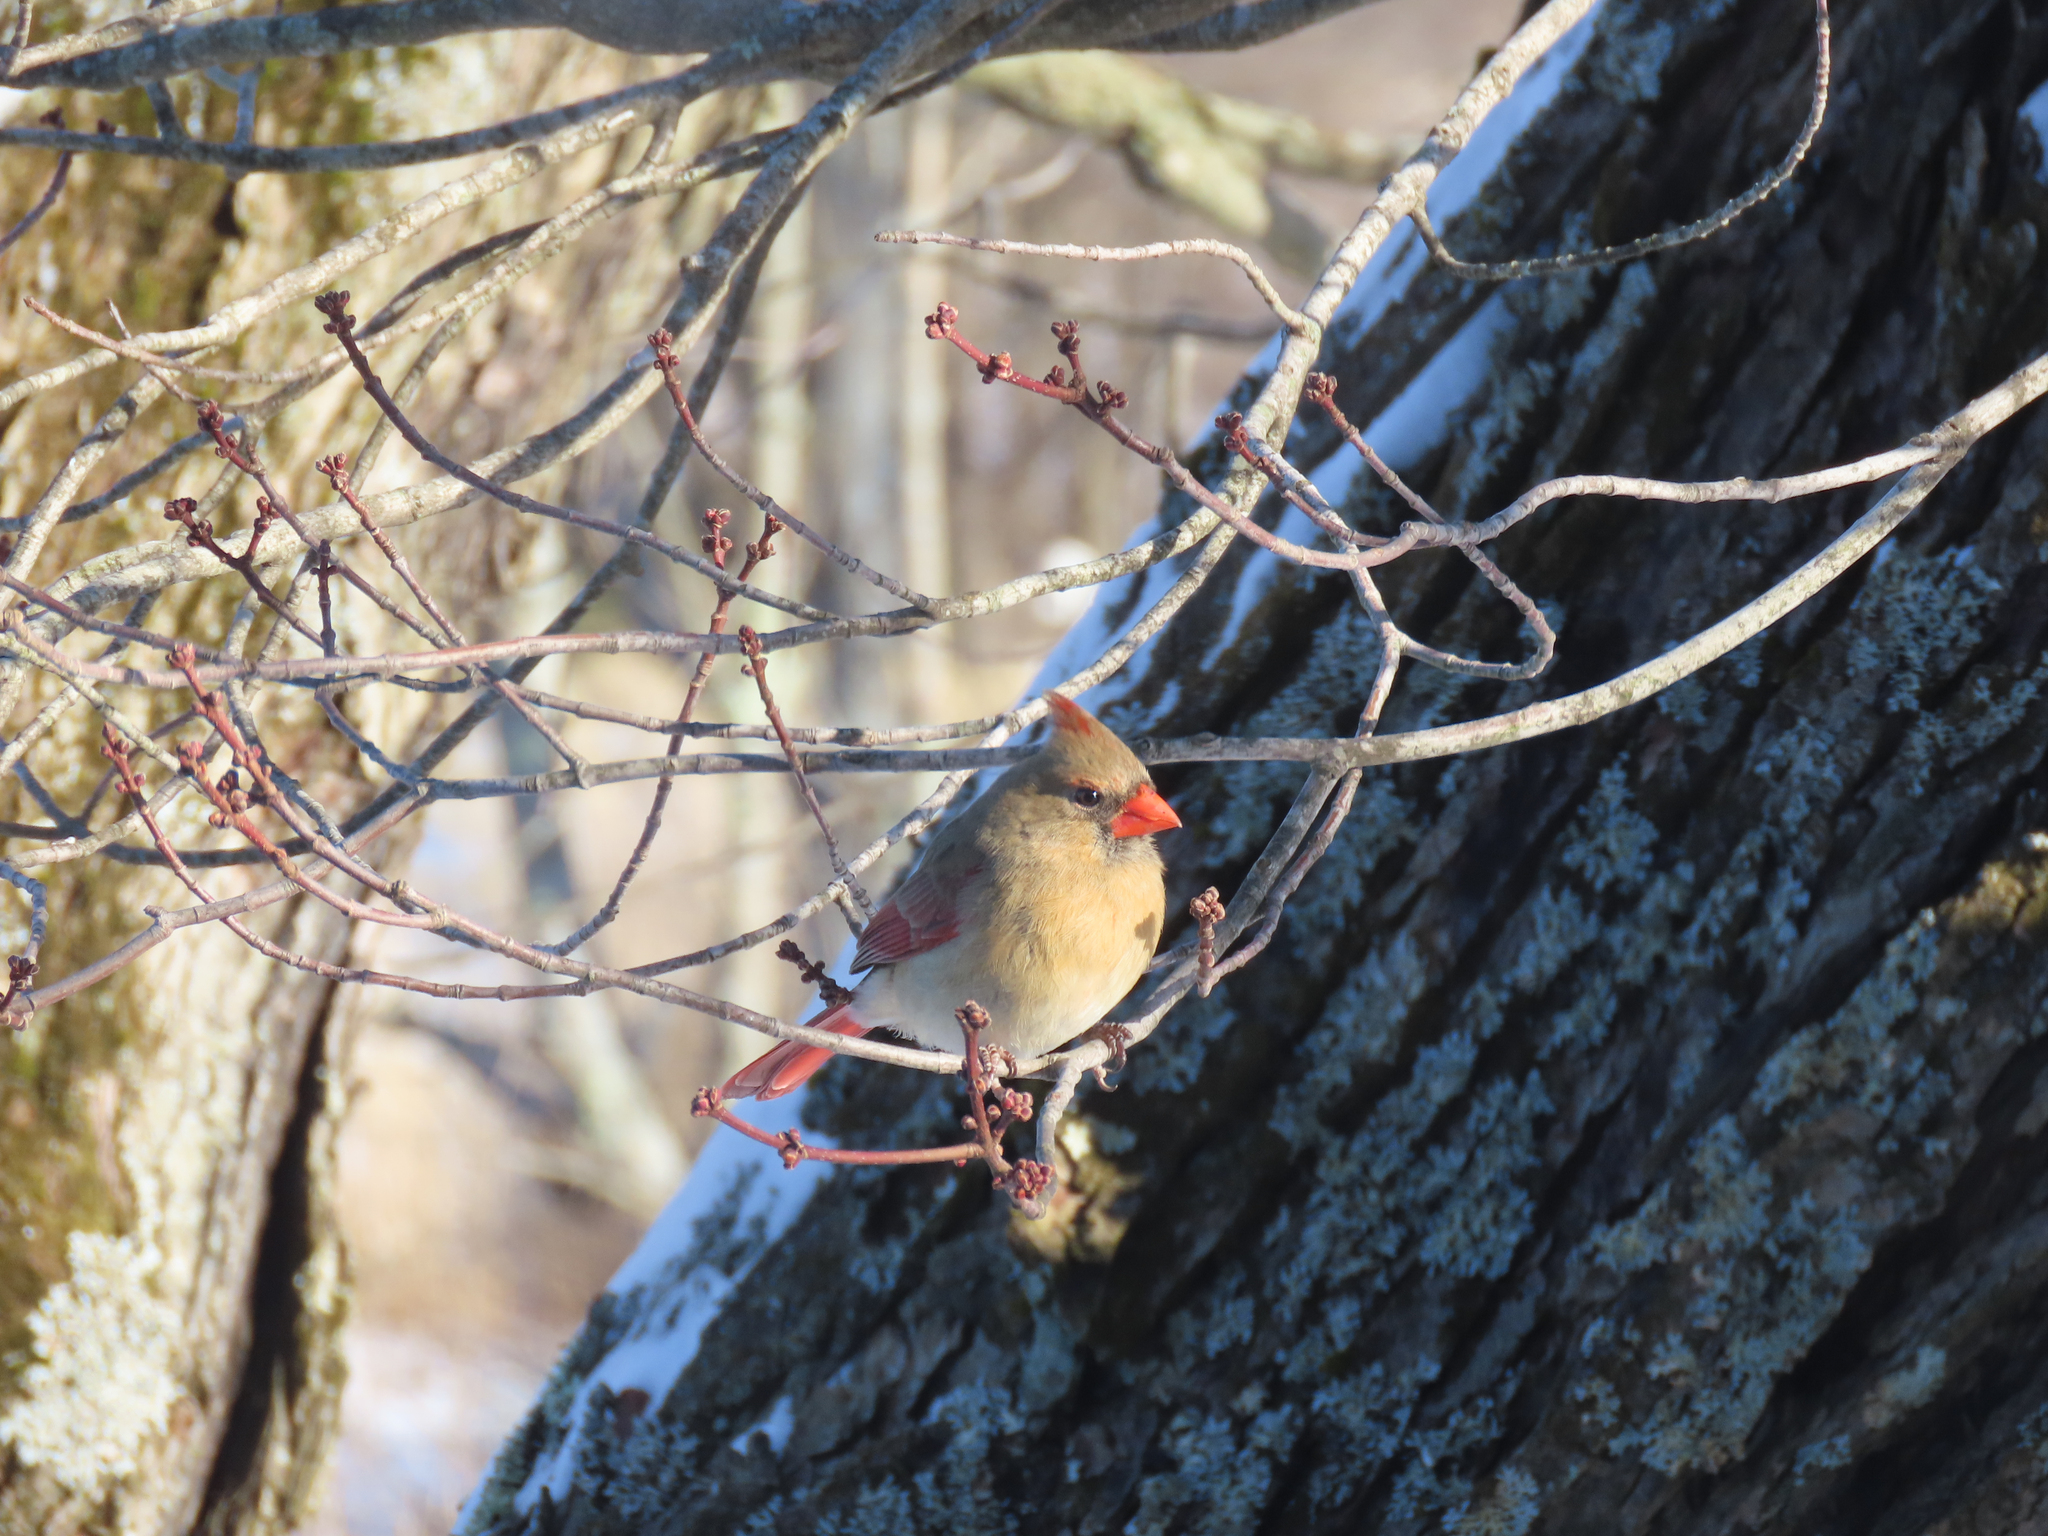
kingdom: Animalia
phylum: Chordata
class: Aves
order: Passeriformes
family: Cardinalidae
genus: Cardinalis
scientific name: Cardinalis cardinalis
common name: Northern cardinal
